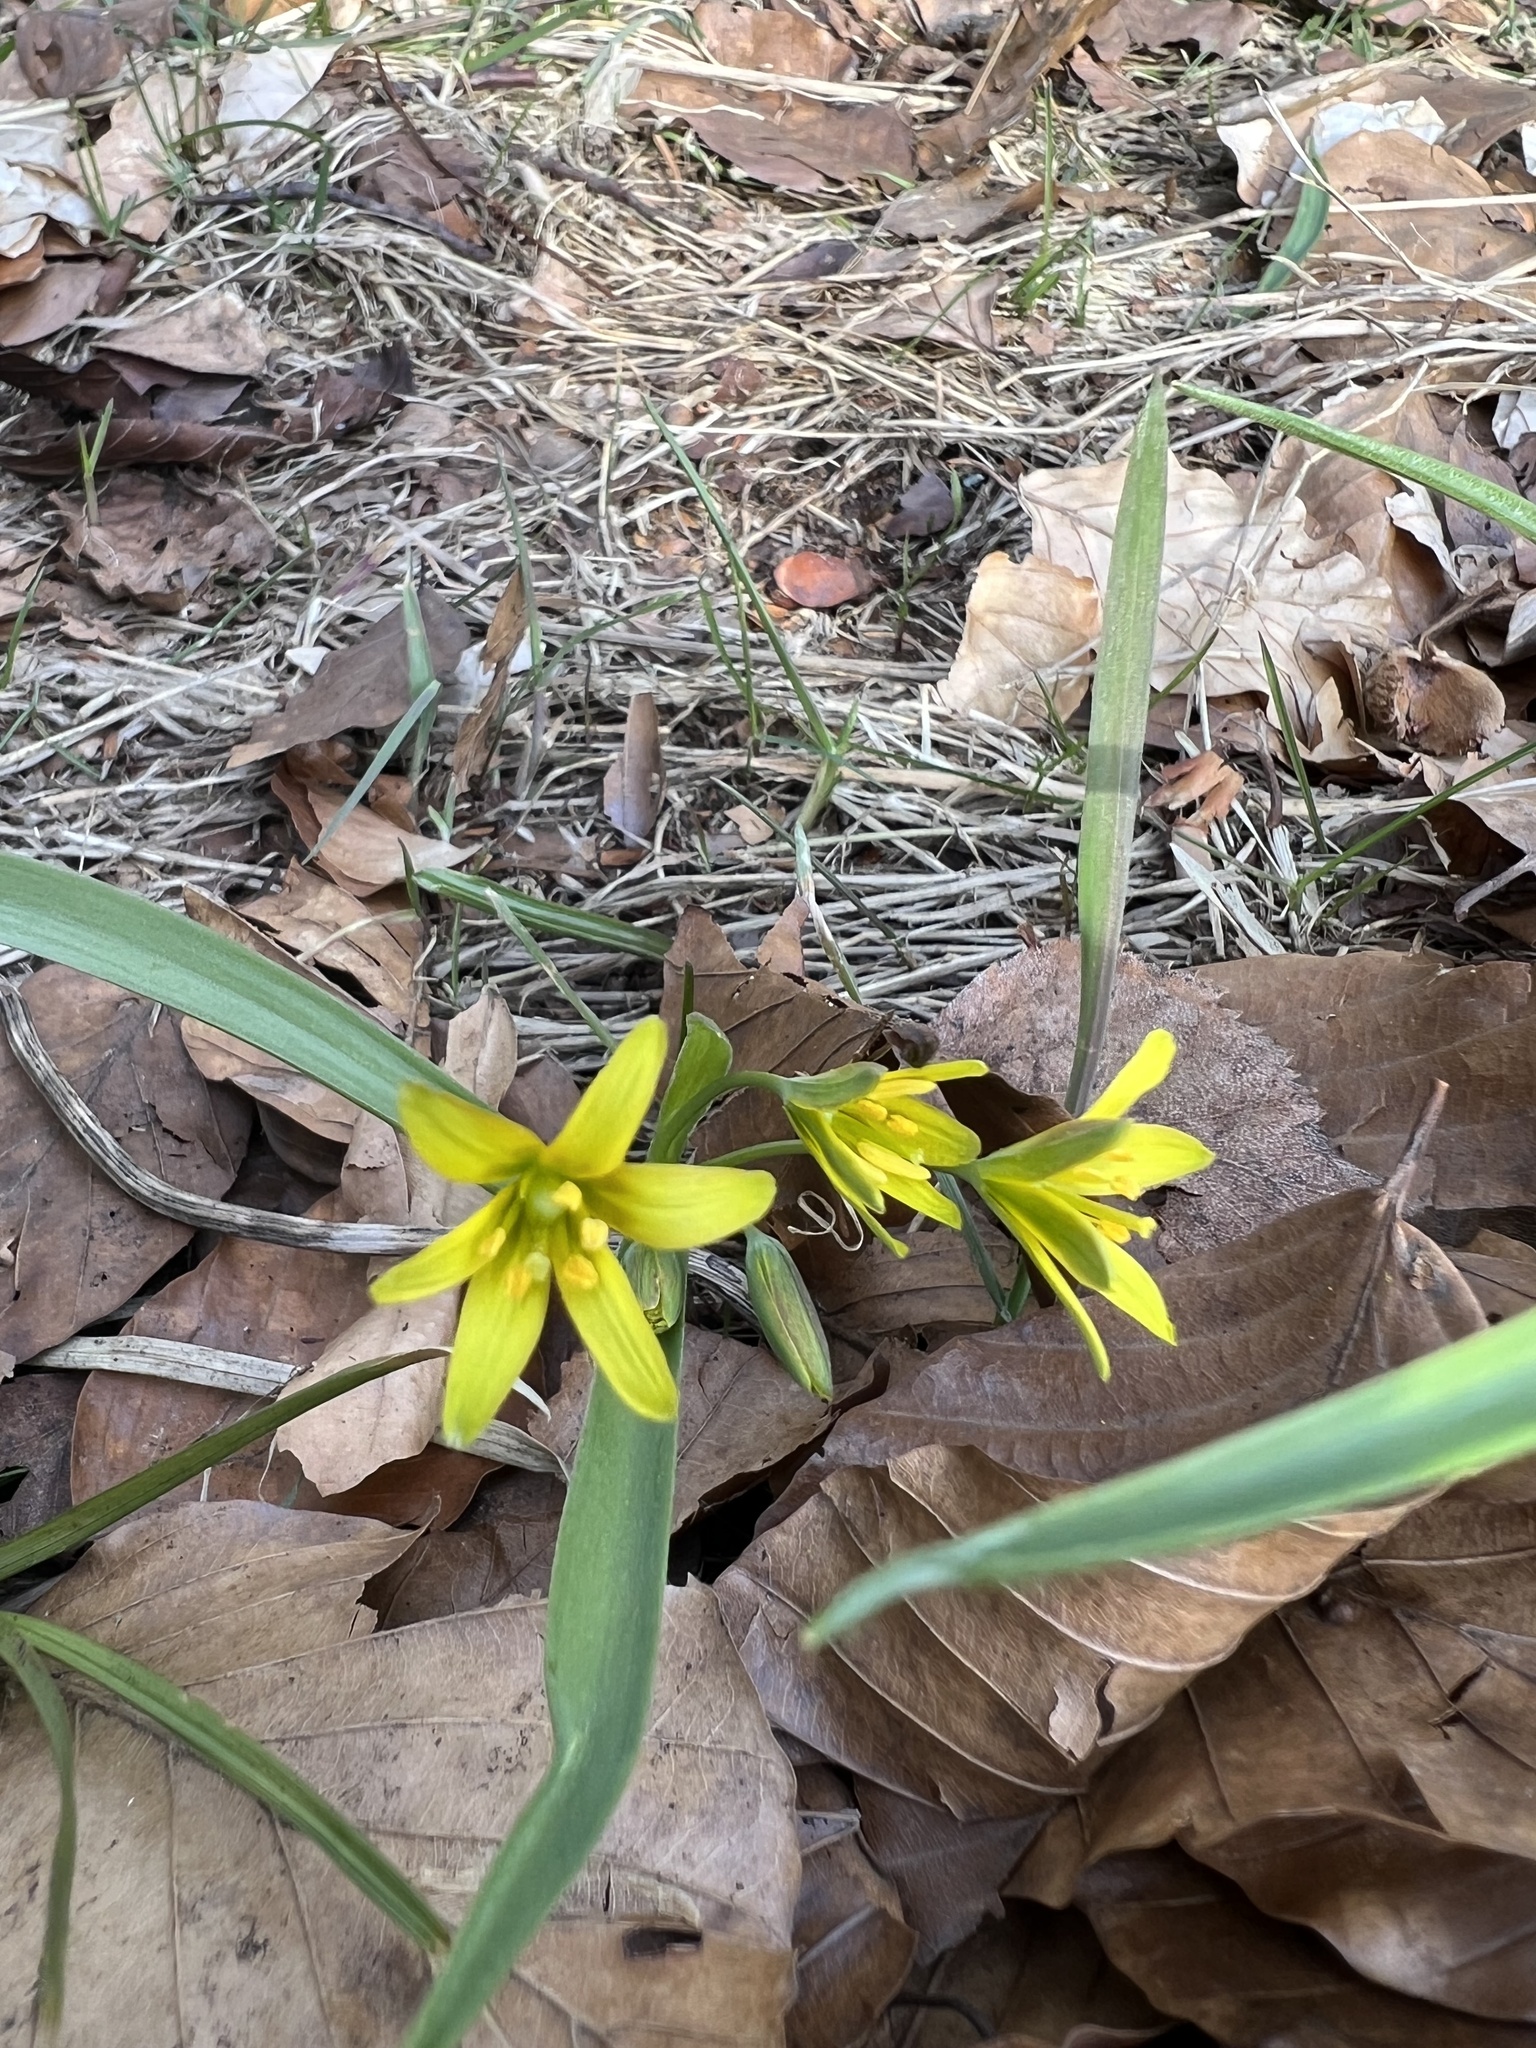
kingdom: Plantae
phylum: Tracheophyta
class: Liliopsida
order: Liliales
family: Liliaceae
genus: Gagea
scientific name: Gagea lutea
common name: Yellow star-of-bethlehem
